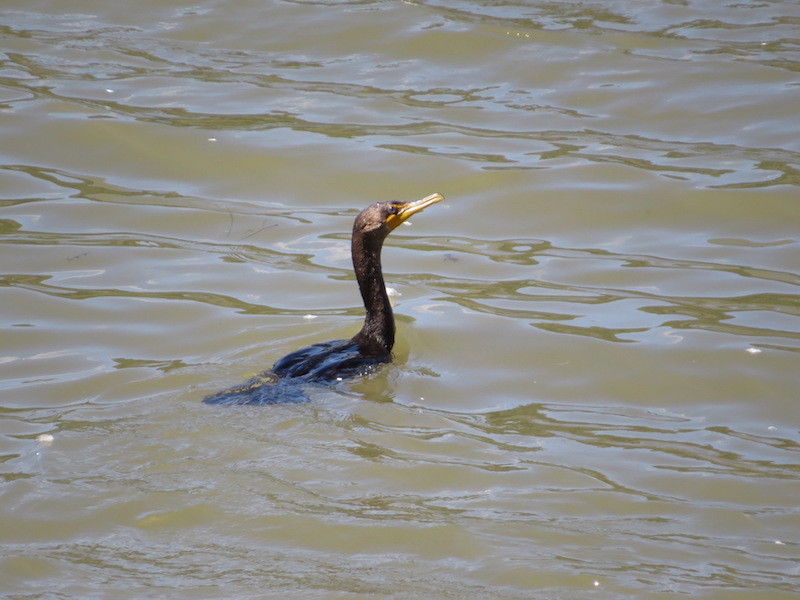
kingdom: Animalia
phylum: Chordata
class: Aves
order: Suliformes
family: Phalacrocoracidae
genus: Phalacrocorax
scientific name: Phalacrocorax auritus
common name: Double-crested cormorant
